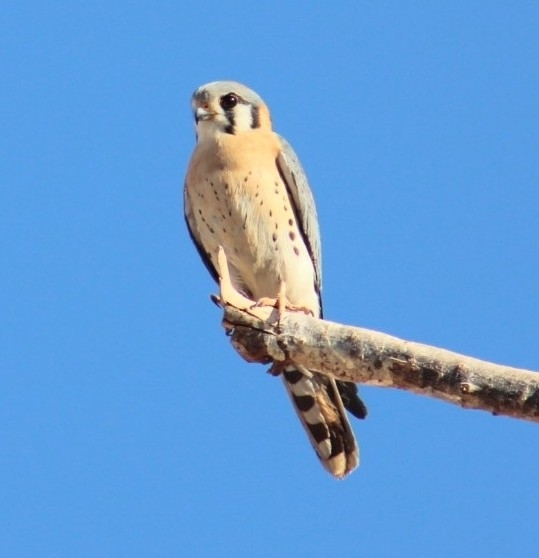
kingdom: Animalia
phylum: Chordata
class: Aves
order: Falconiformes
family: Falconidae
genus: Falco
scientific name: Falco sparverius
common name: American kestrel
